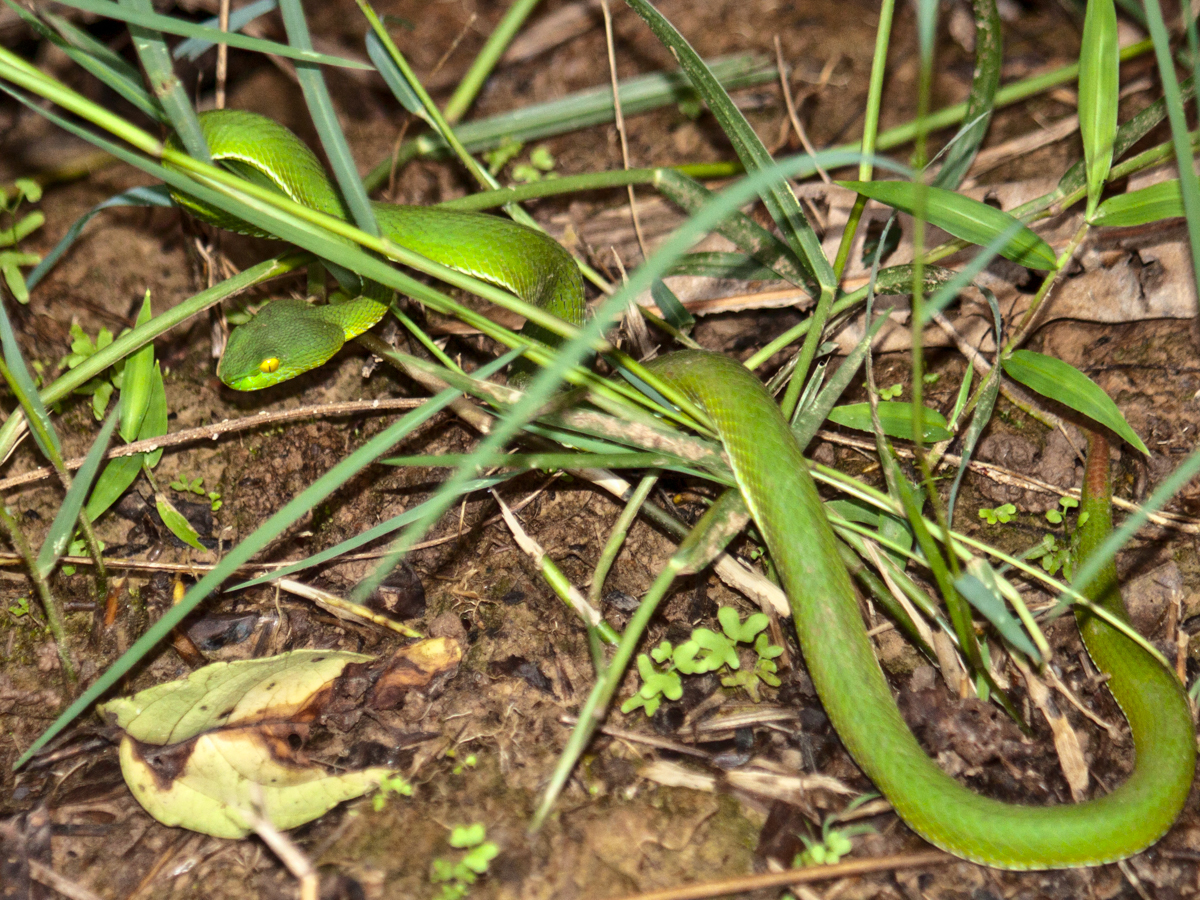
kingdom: Animalia
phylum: Chordata
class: Squamata
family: Viperidae
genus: Trimeresurus
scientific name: Trimeresurus cardamomensis
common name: Cardamom mountains green pitviper
